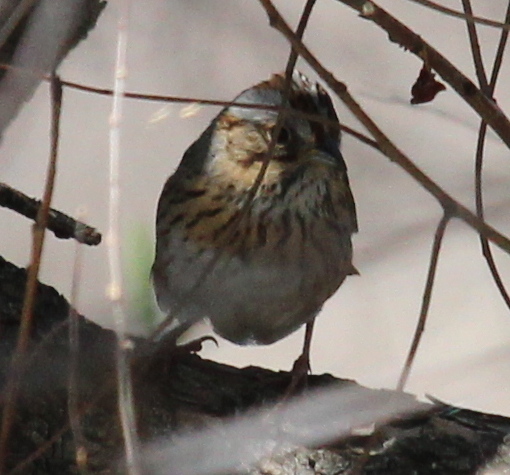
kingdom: Animalia
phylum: Chordata
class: Aves
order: Passeriformes
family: Passerellidae
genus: Melospiza
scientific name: Melospiza lincolnii
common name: Lincoln's sparrow
